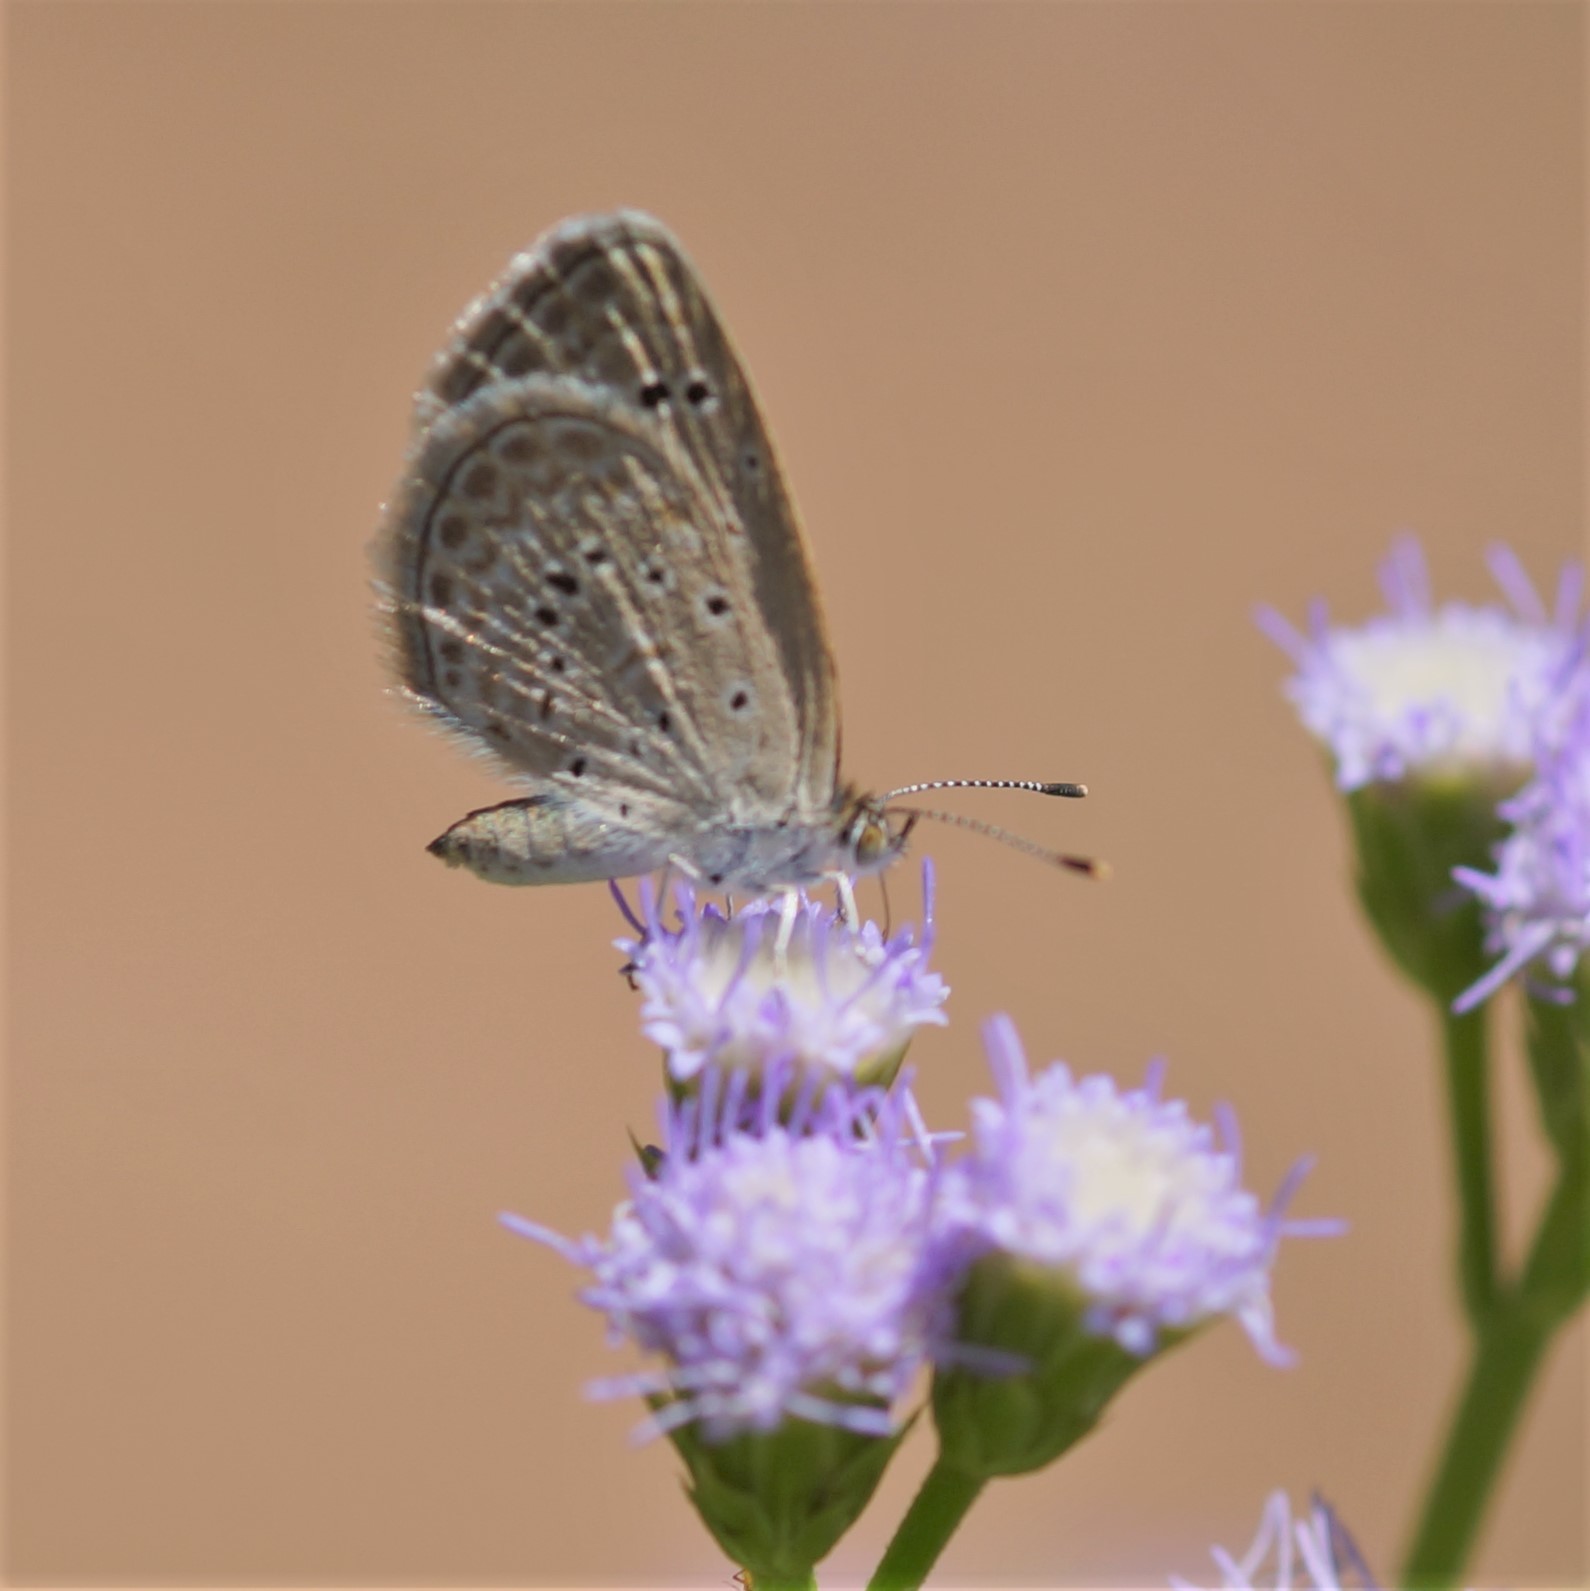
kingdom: Animalia
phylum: Arthropoda
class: Insecta
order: Lepidoptera
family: Lycaenidae
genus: Zizeeria
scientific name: Zizeeria karsandra
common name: Dark grass blue
